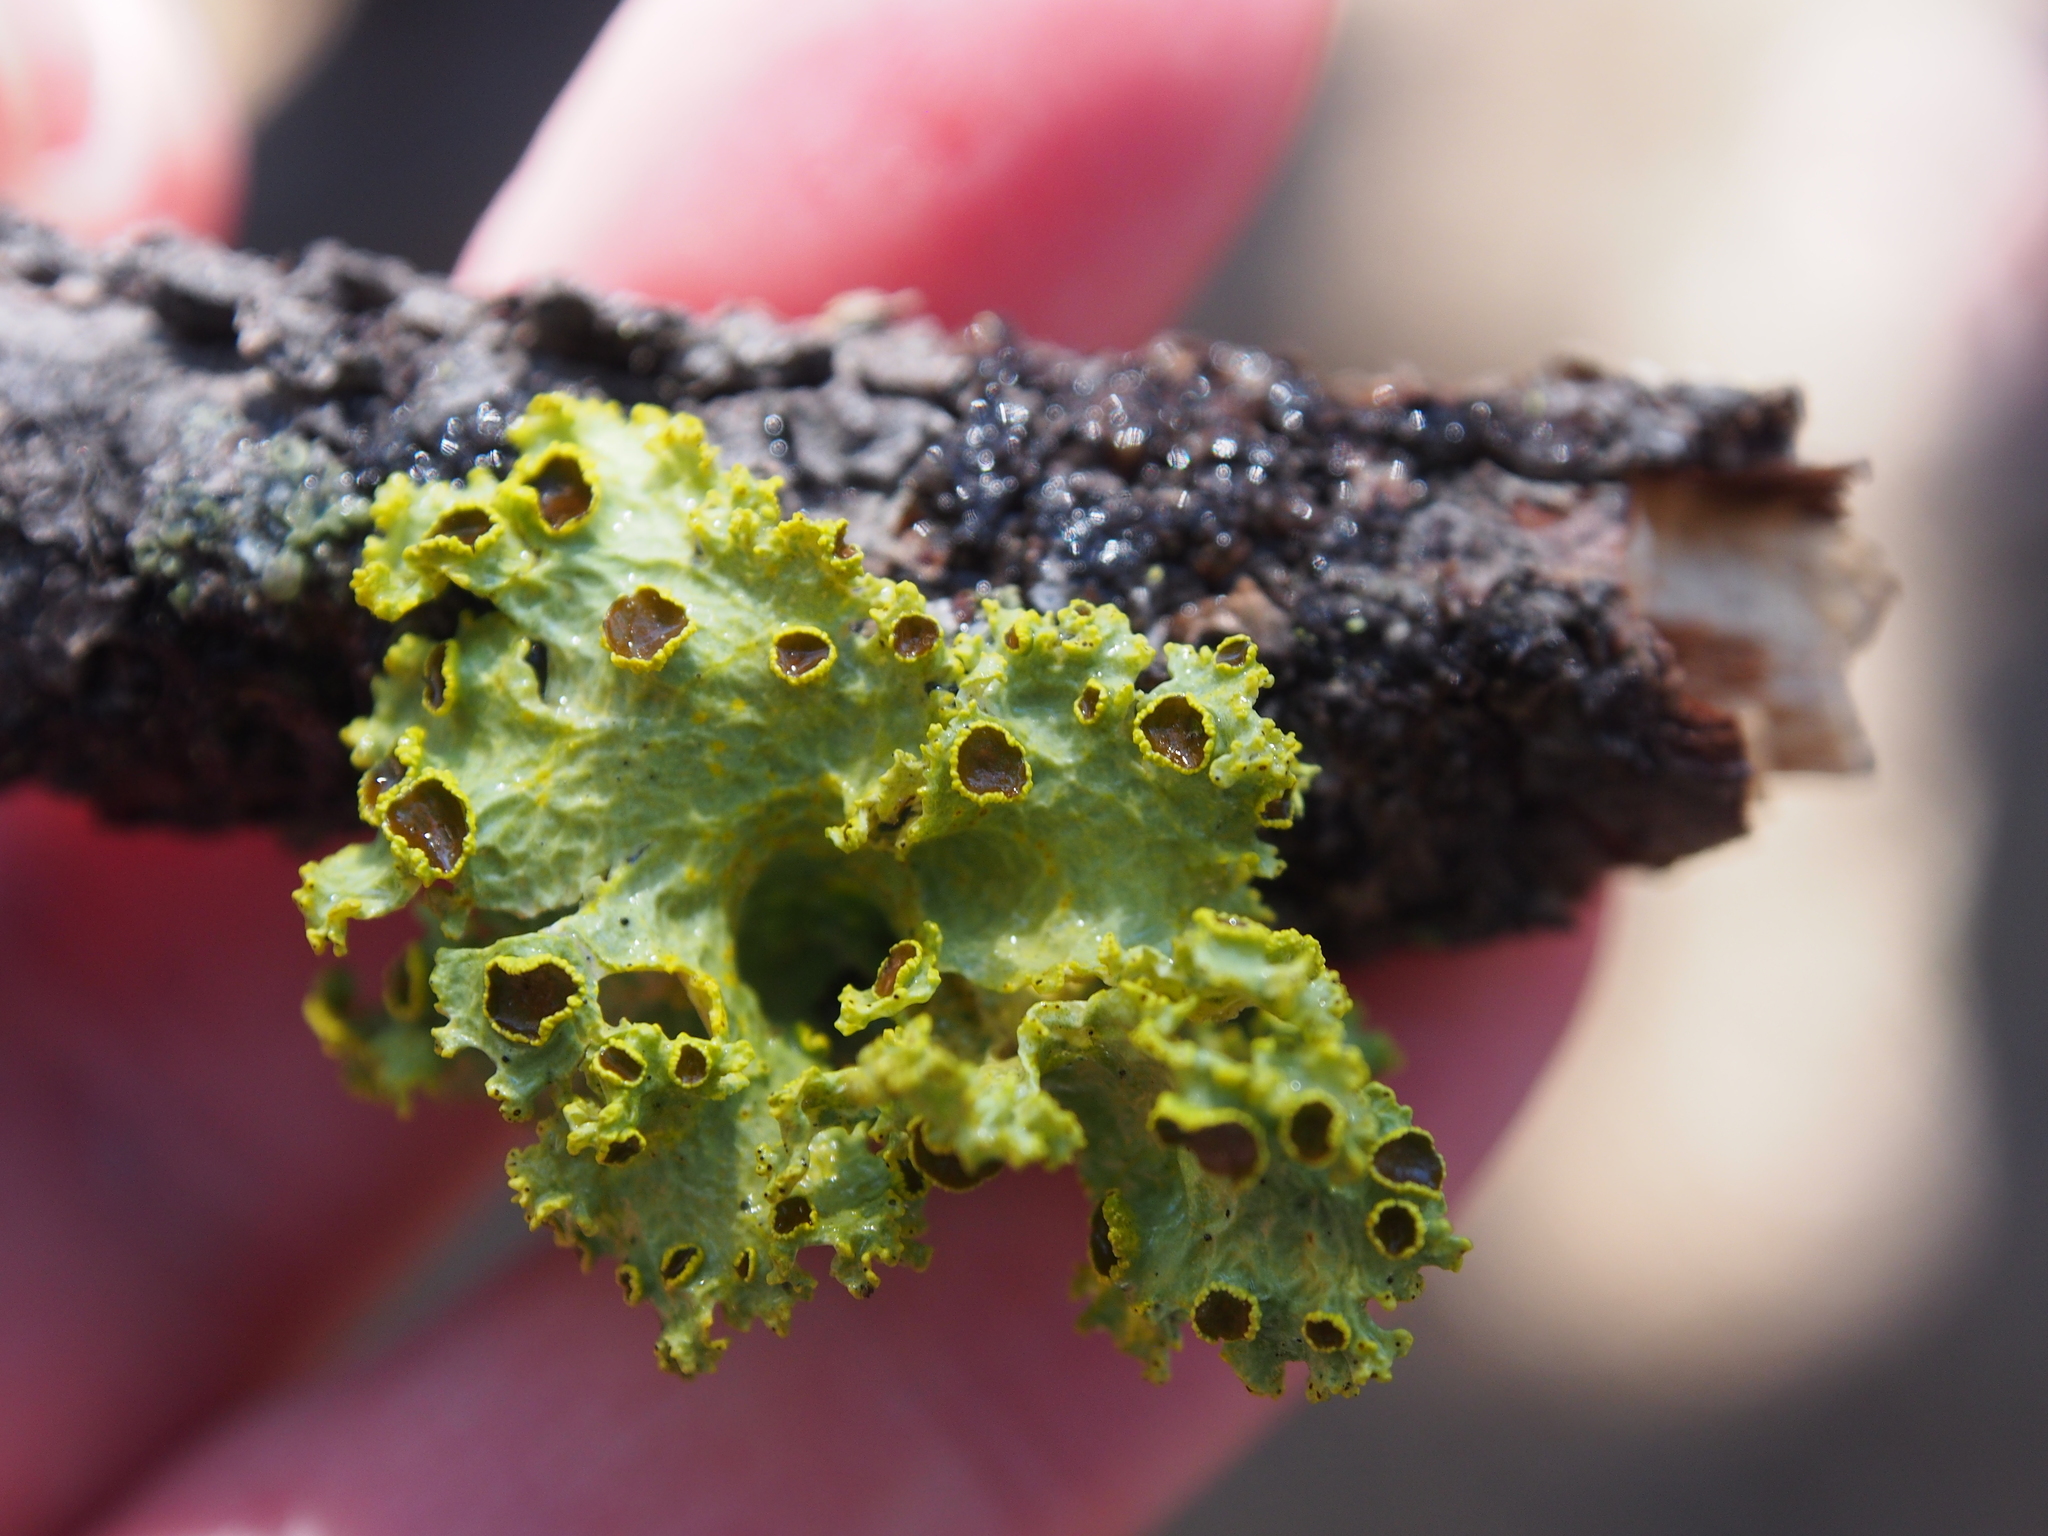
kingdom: Fungi
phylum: Ascomycota
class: Lecanoromycetes
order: Lecanorales
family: Parmeliaceae
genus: Vulpicida
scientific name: Vulpicida canadensis
